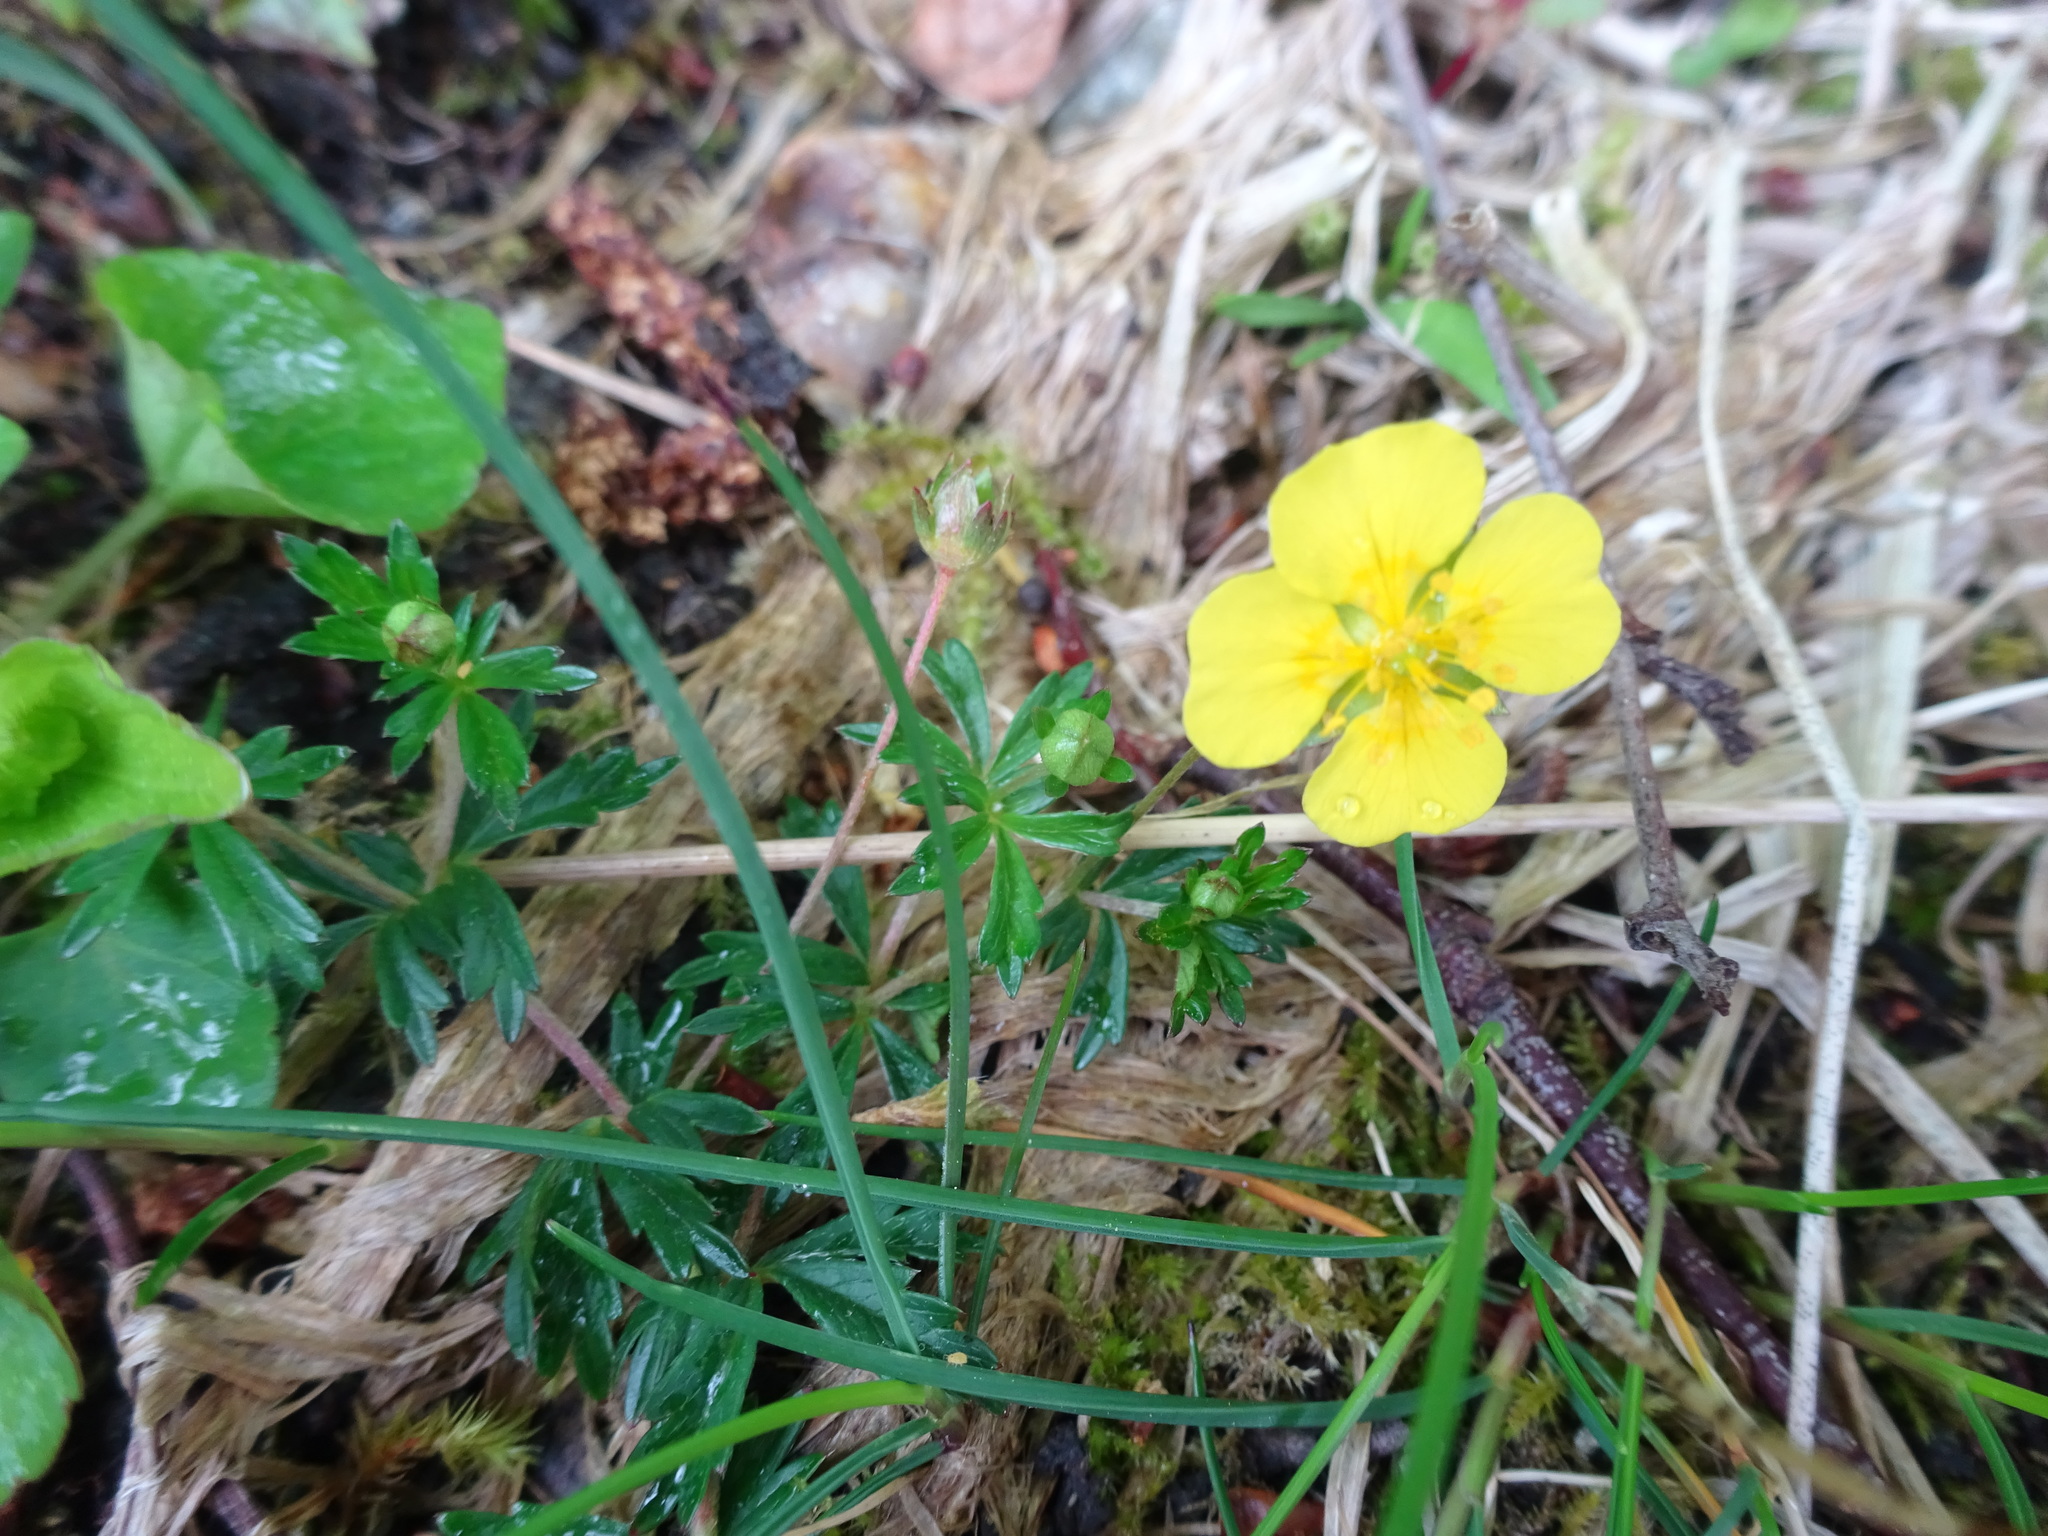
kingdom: Plantae
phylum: Tracheophyta
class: Magnoliopsida
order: Rosales
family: Rosaceae
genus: Potentilla
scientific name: Potentilla erecta
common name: Tormentil
